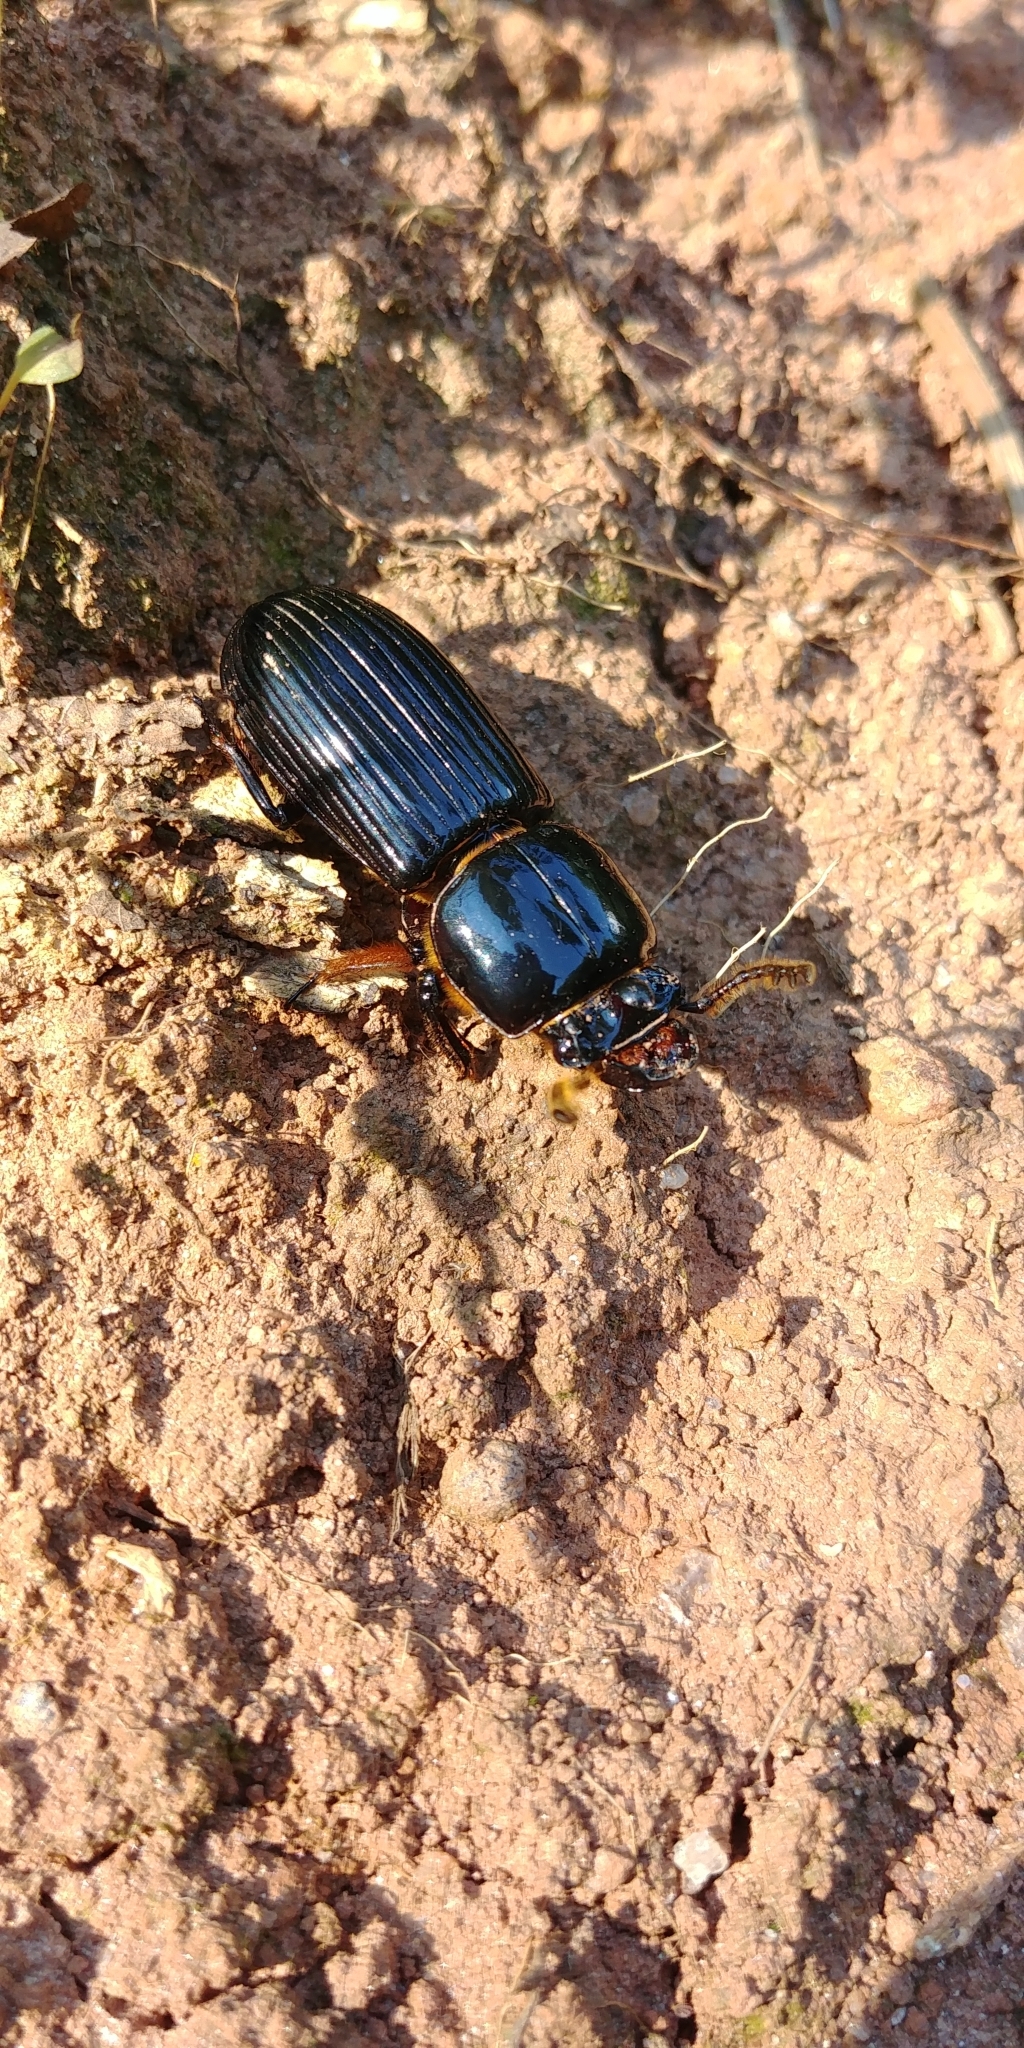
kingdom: Animalia
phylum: Arthropoda
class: Insecta
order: Coleoptera
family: Passalidae
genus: Odontotaenius
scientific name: Odontotaenius disjunctus
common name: Patent leather beetle
